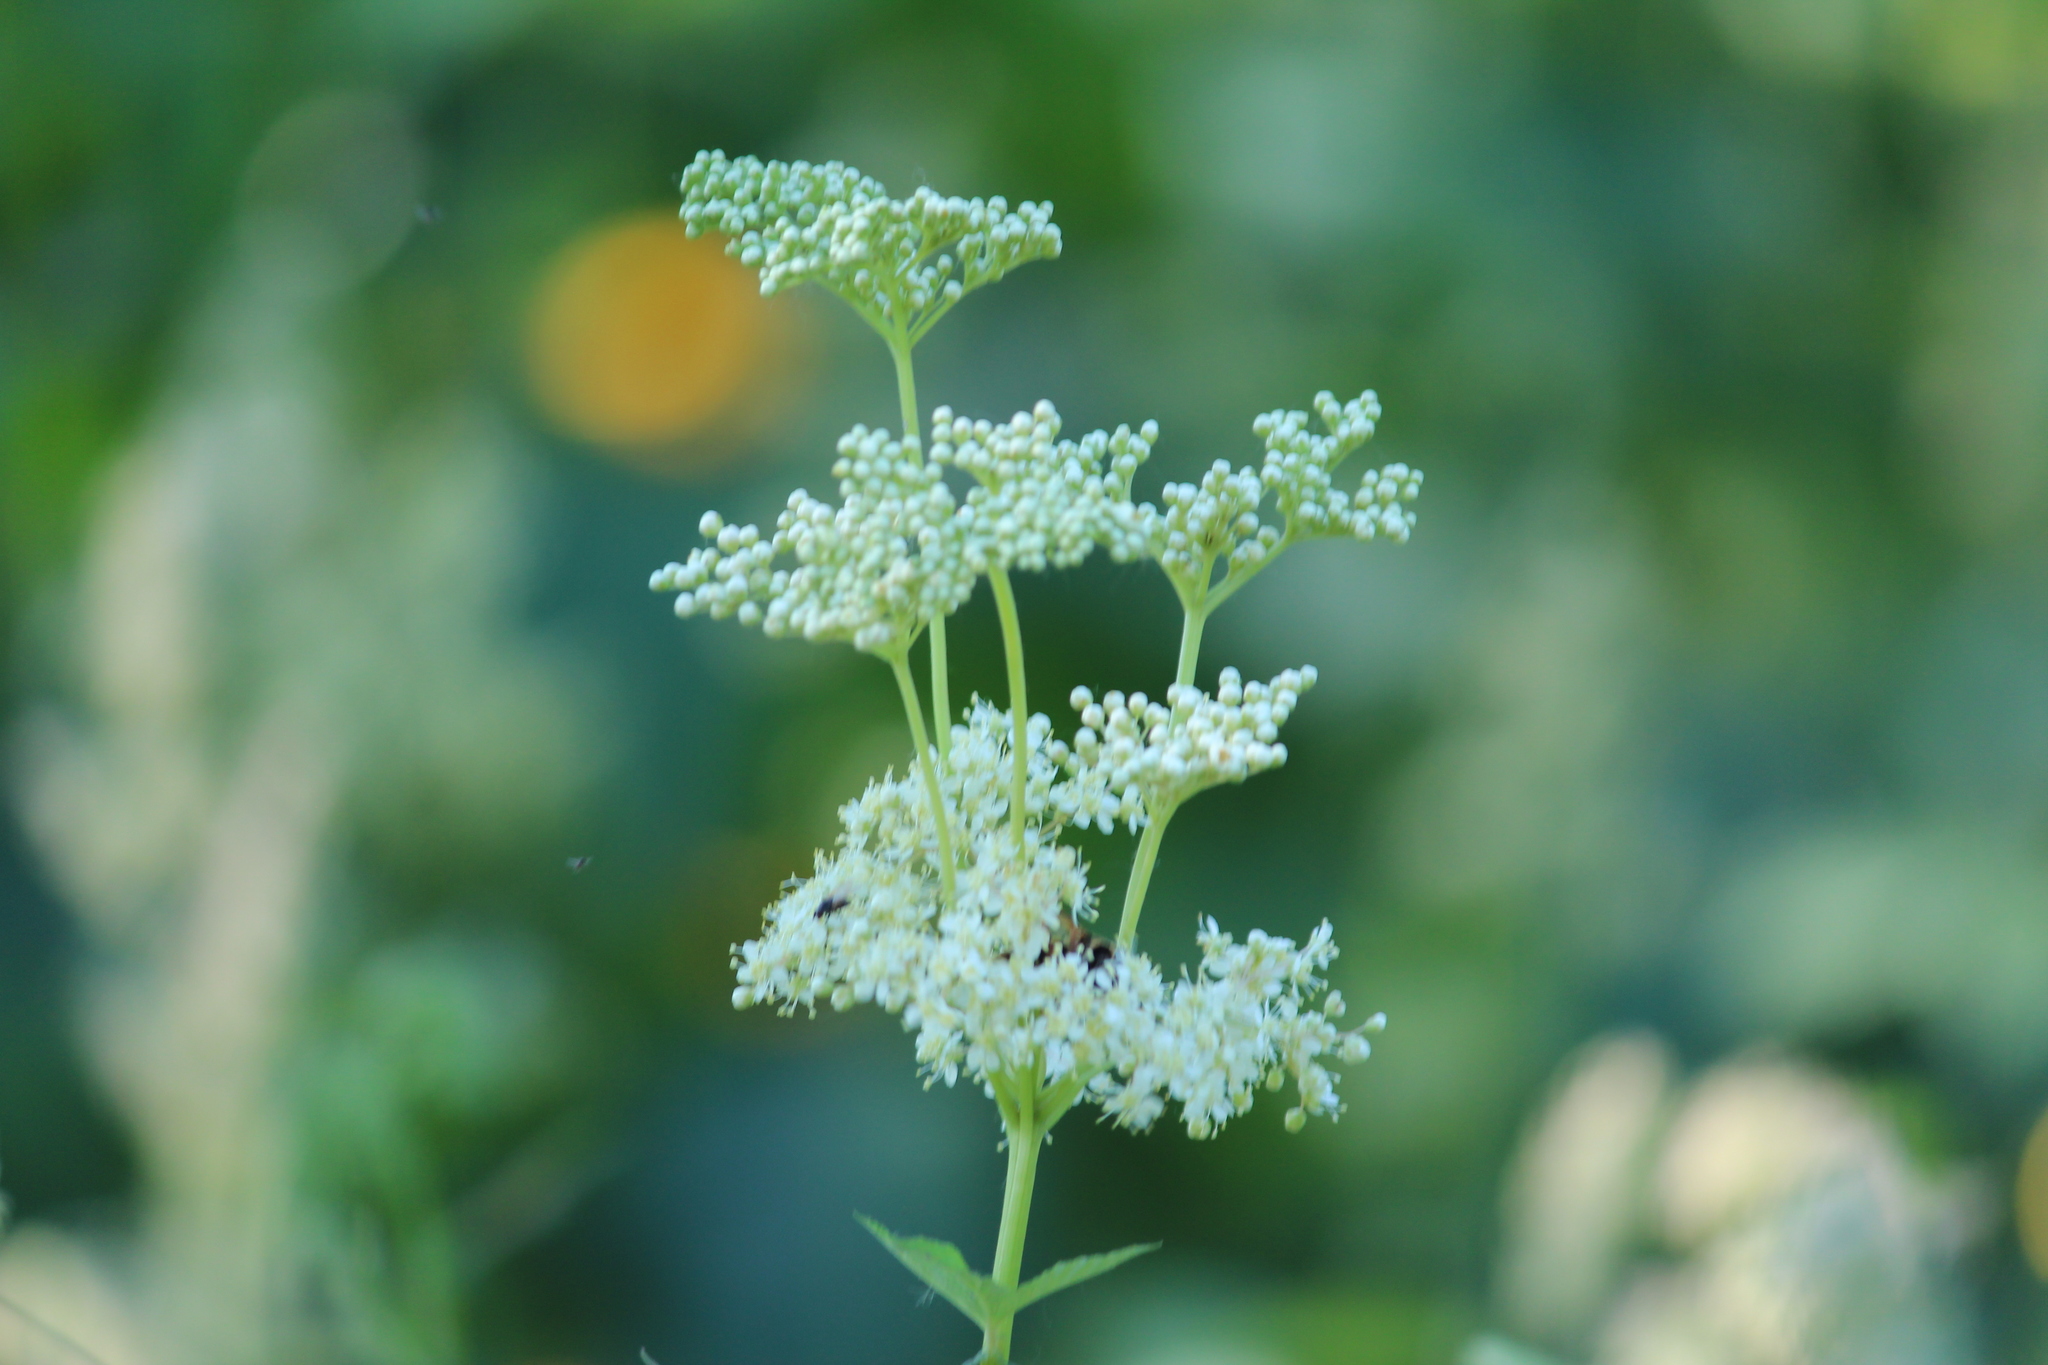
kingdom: Plantae
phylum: Tracheophyta
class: Magnoliopsida
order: Rosales
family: Rosaceae
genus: Filipendula
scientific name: Filipendula ulmaria
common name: Meadowsweet
